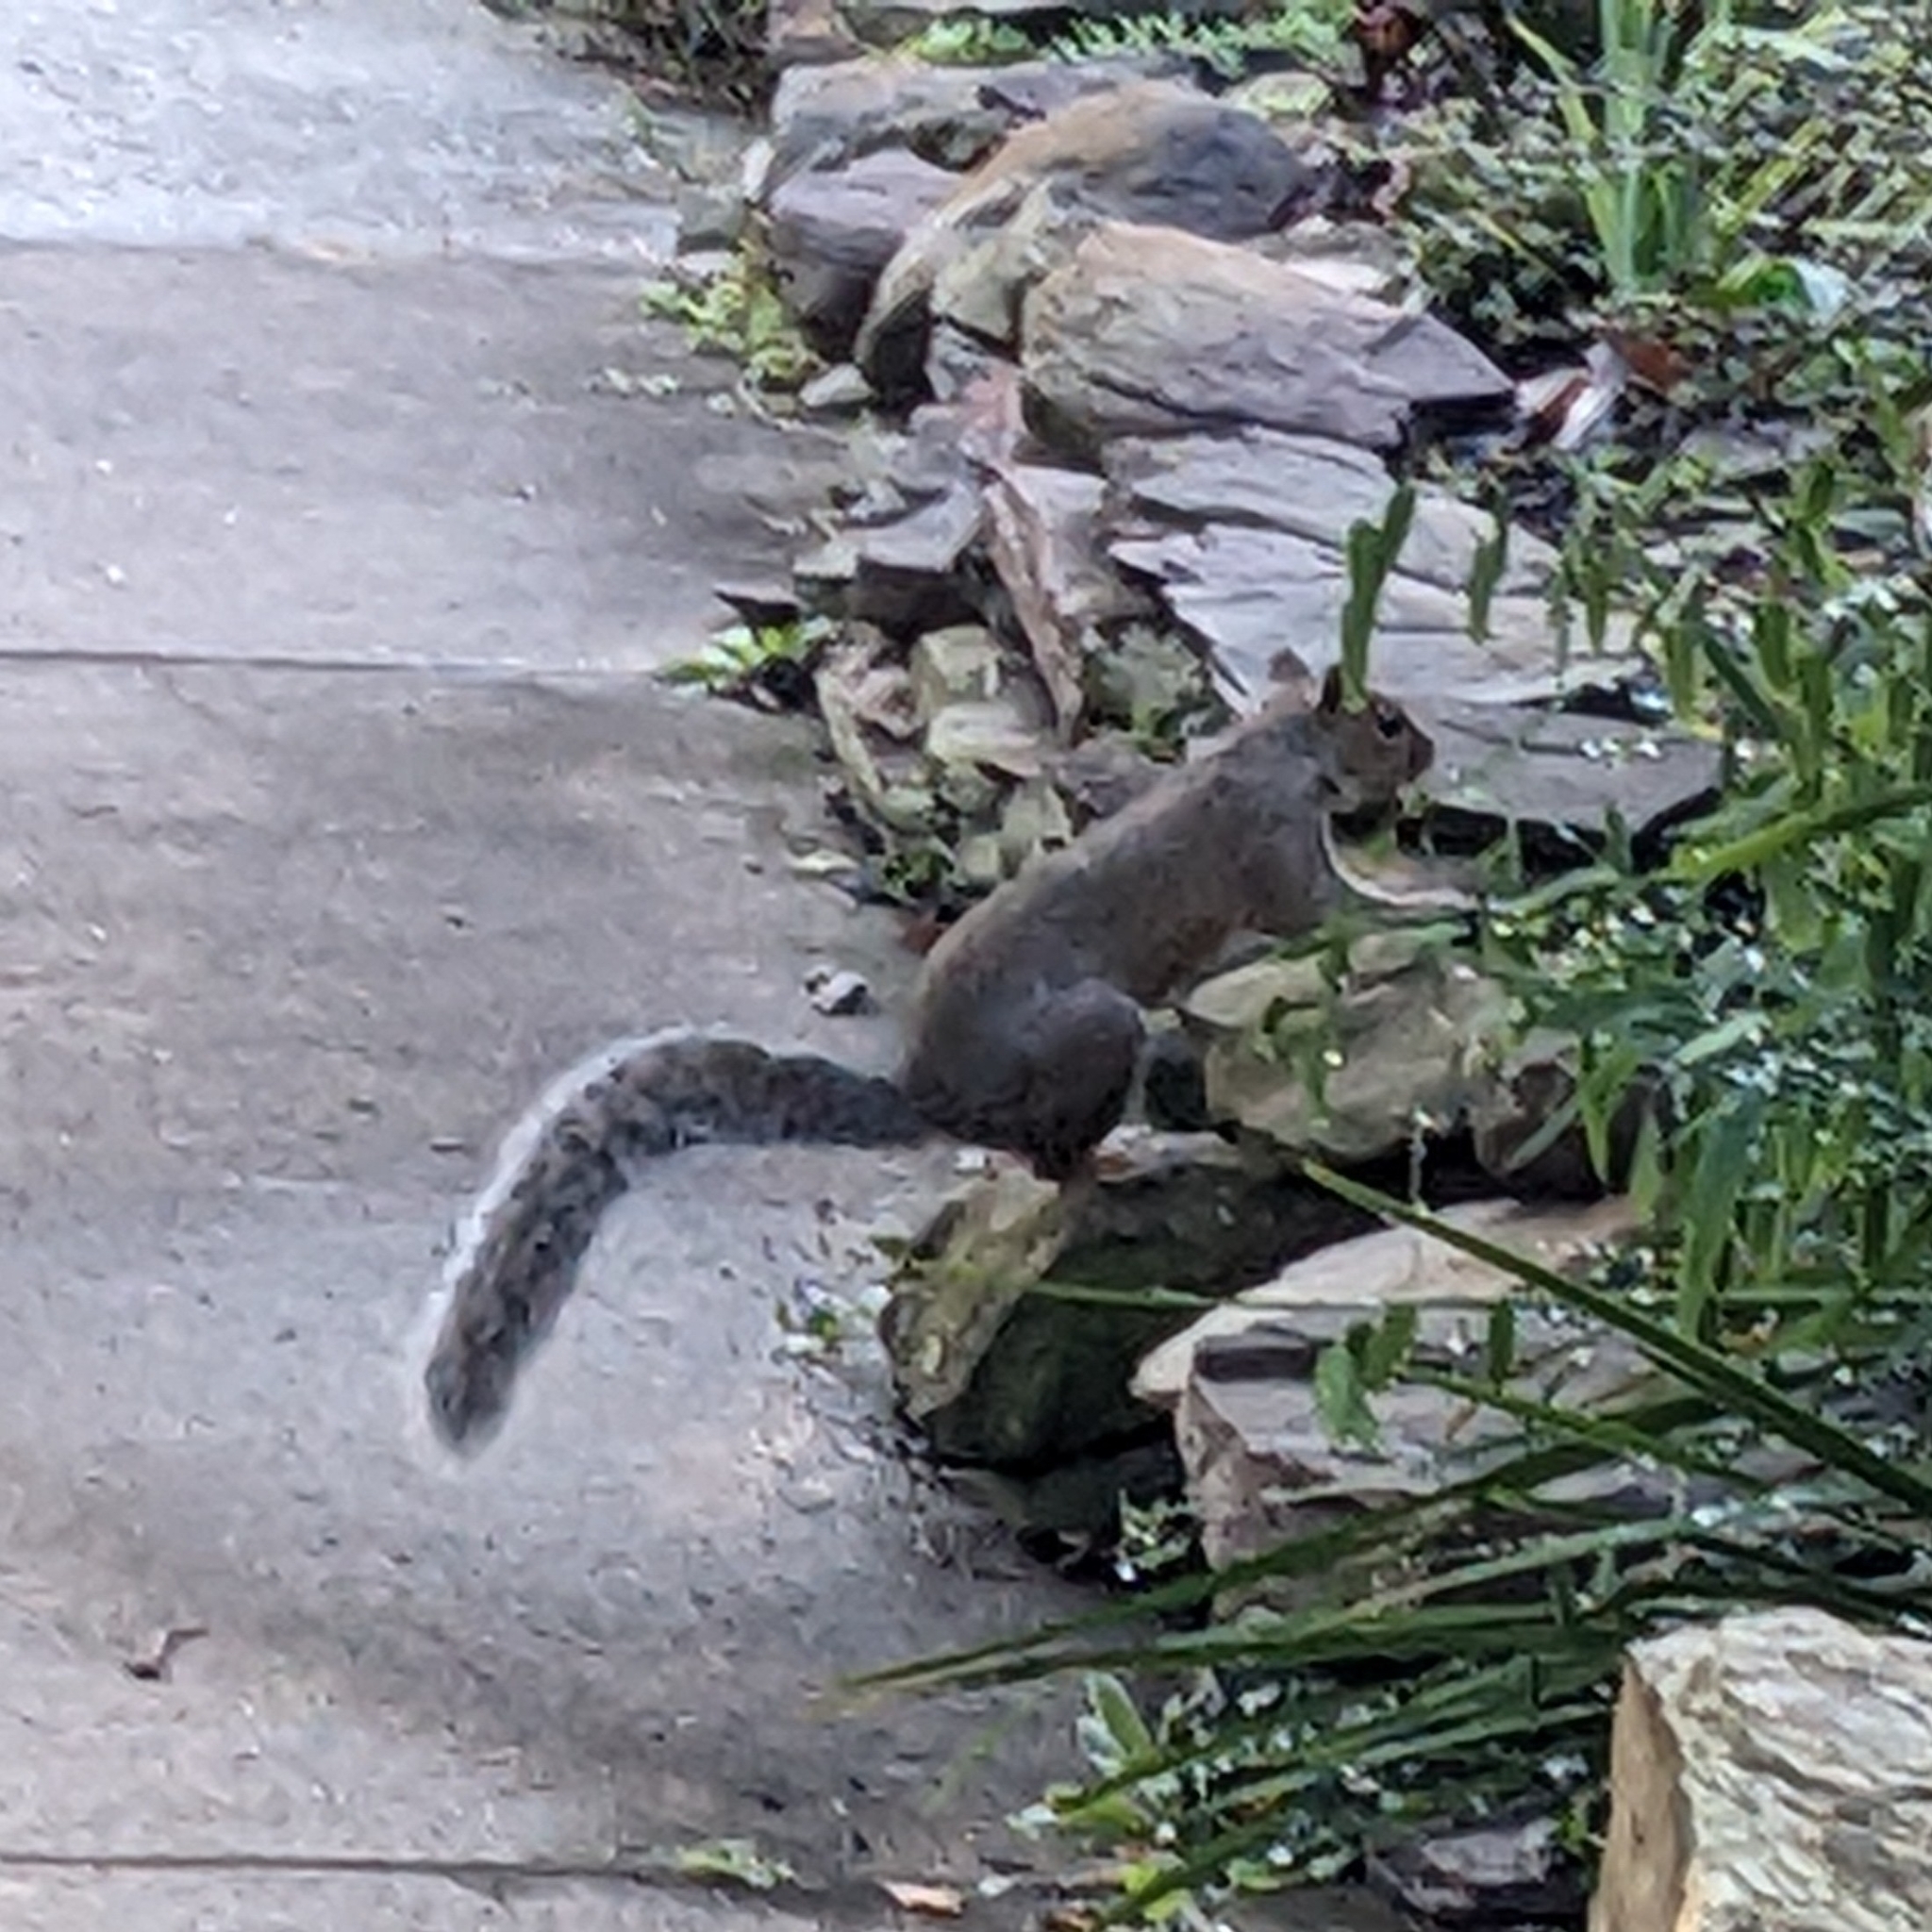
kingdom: Animalia
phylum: Chordata
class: Mammalia
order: Rodentia
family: Sciuridae
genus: Sciurus
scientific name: Sciurus carolinensis
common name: Eastern gray squirrel
